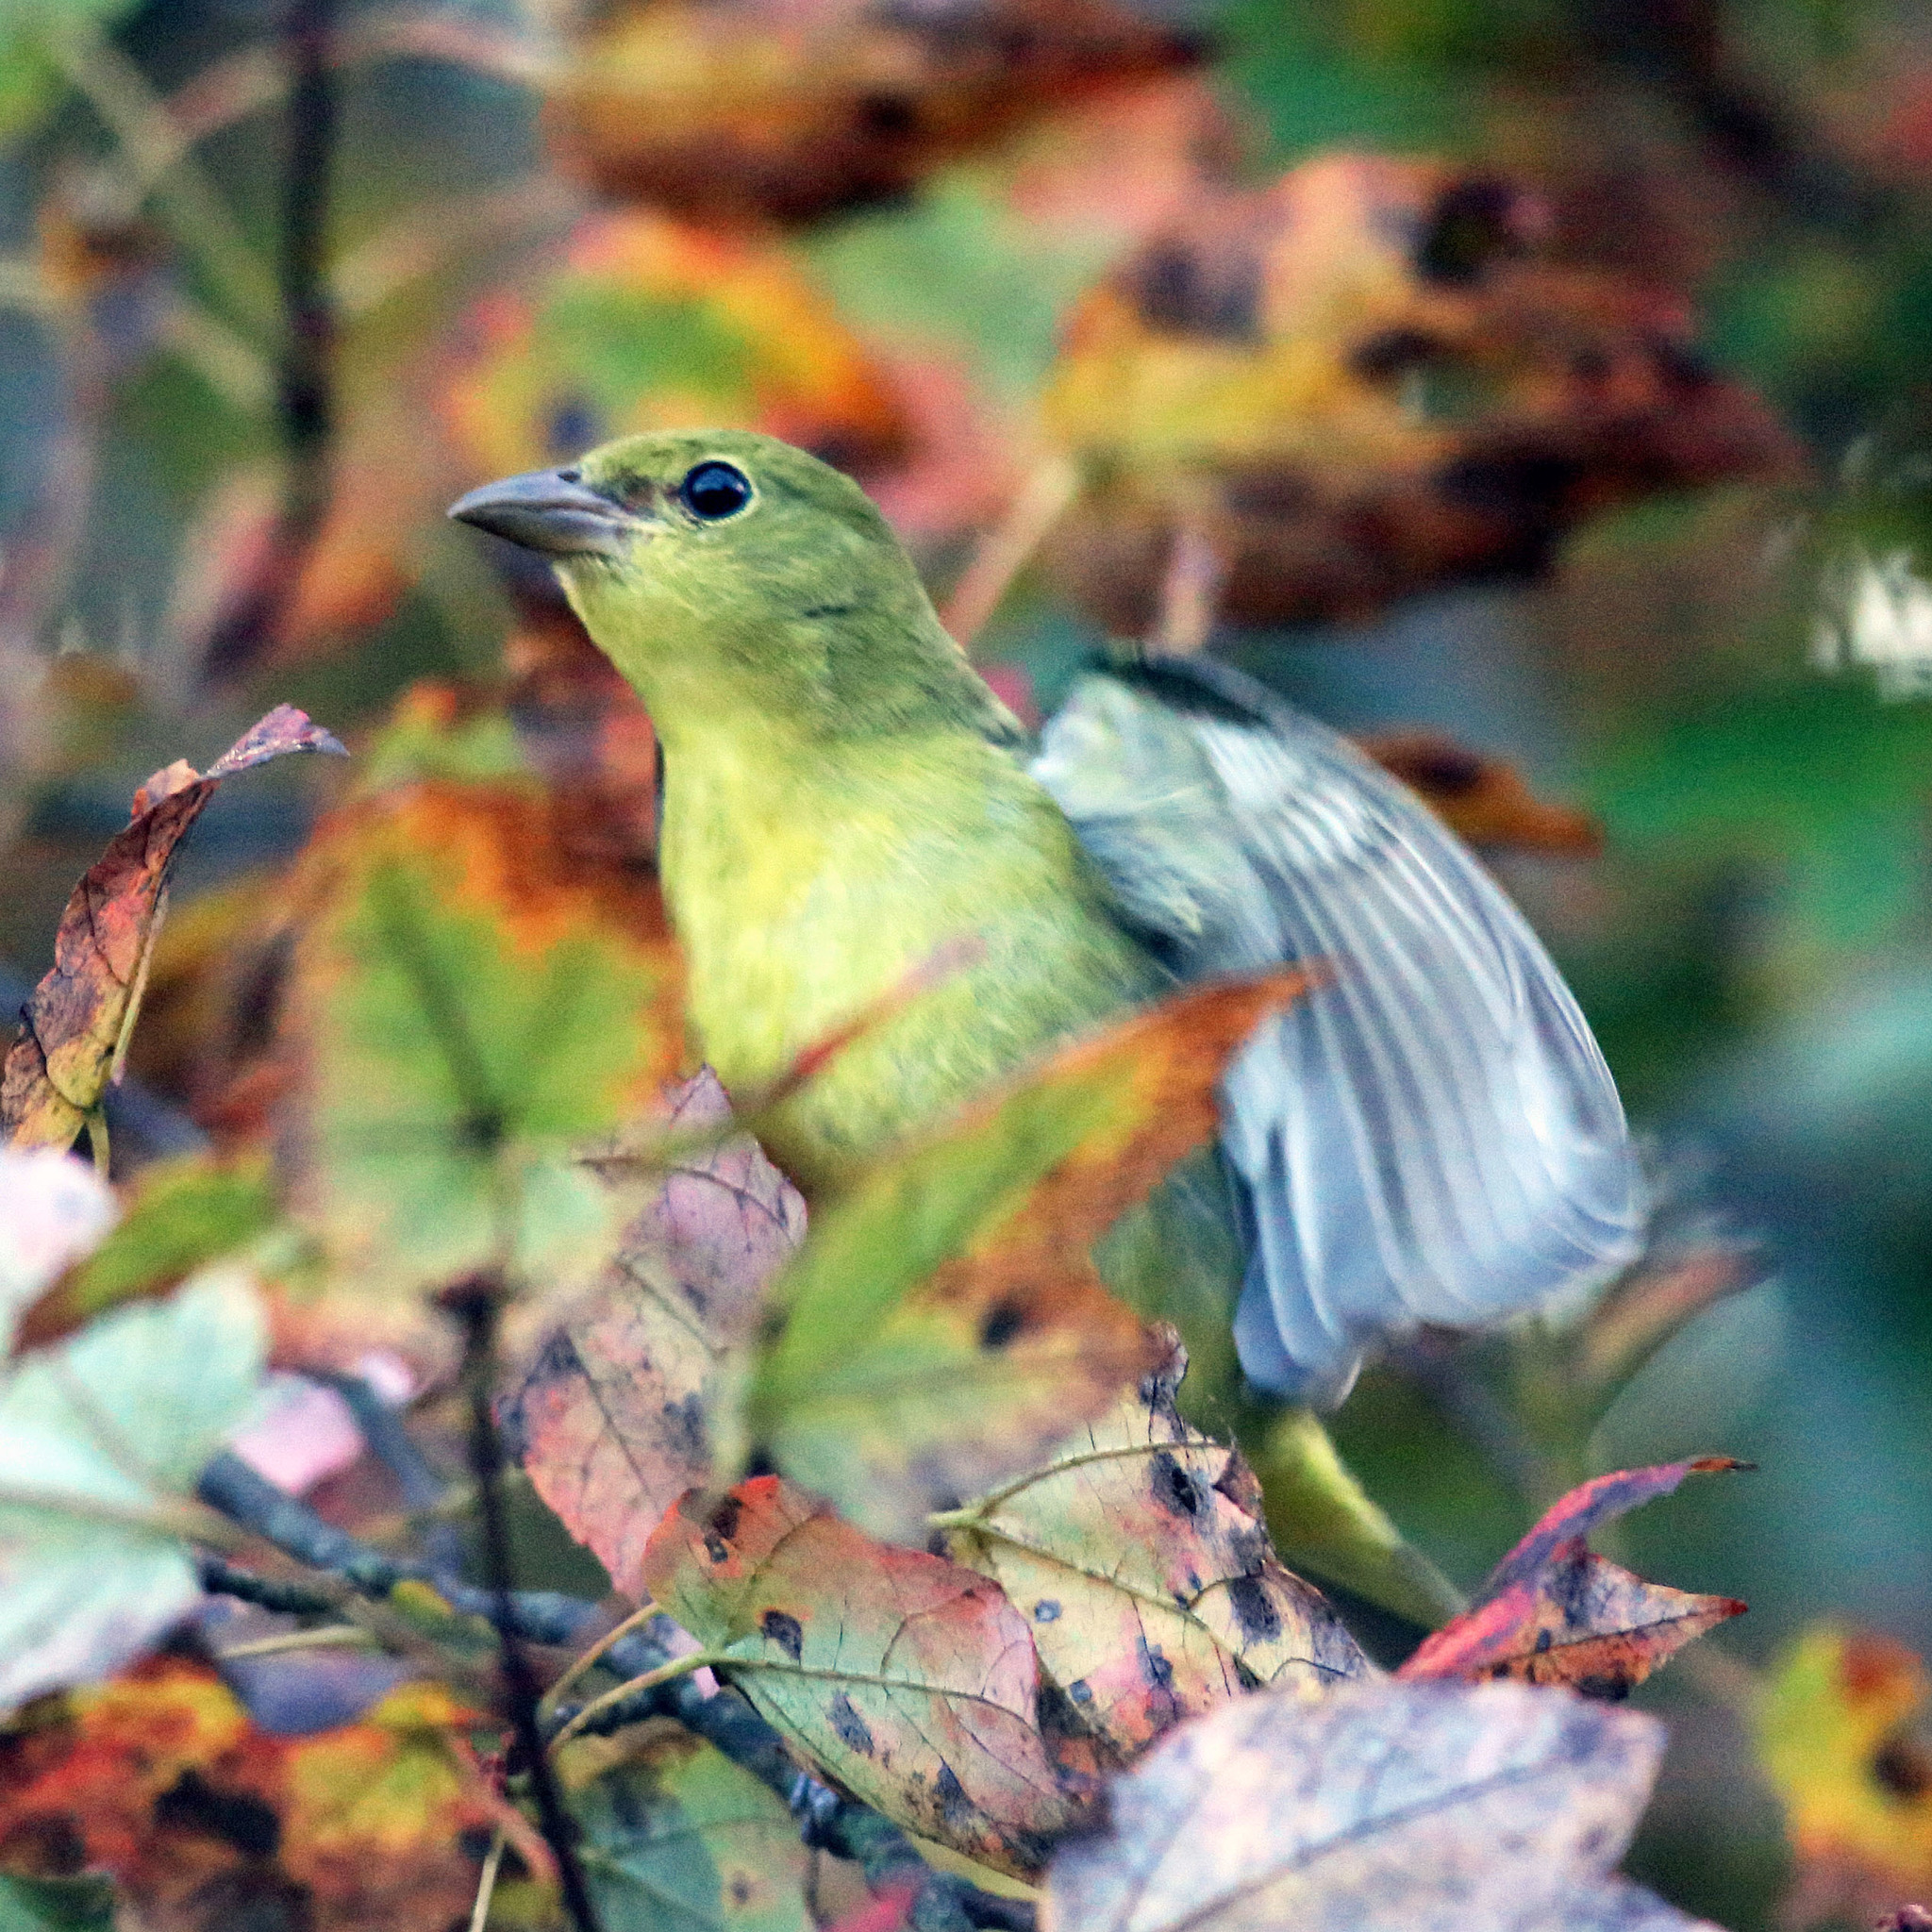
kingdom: Animalia
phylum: Chordata
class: Aves
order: Passeriformes
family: Cardinalidae
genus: Piranga
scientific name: Piranga olivacea
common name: Scarlet tanager
